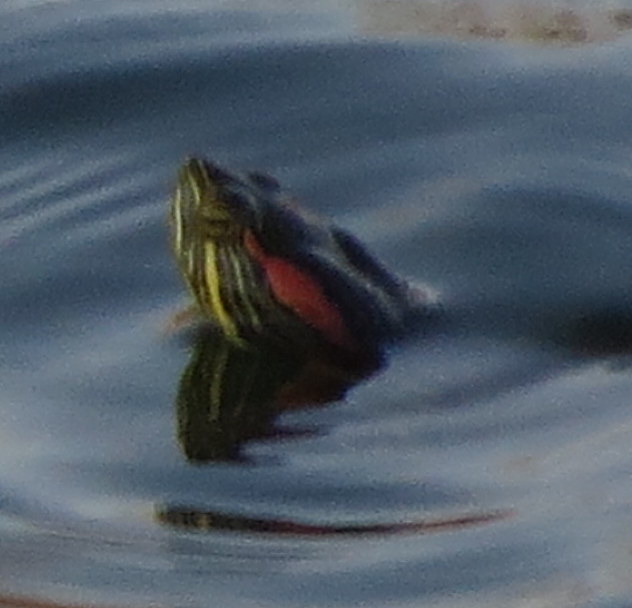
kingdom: Animalia
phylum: Chordata
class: Testudines
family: Emydidae
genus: Trachemys
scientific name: Trachemys scripta
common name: Slider
